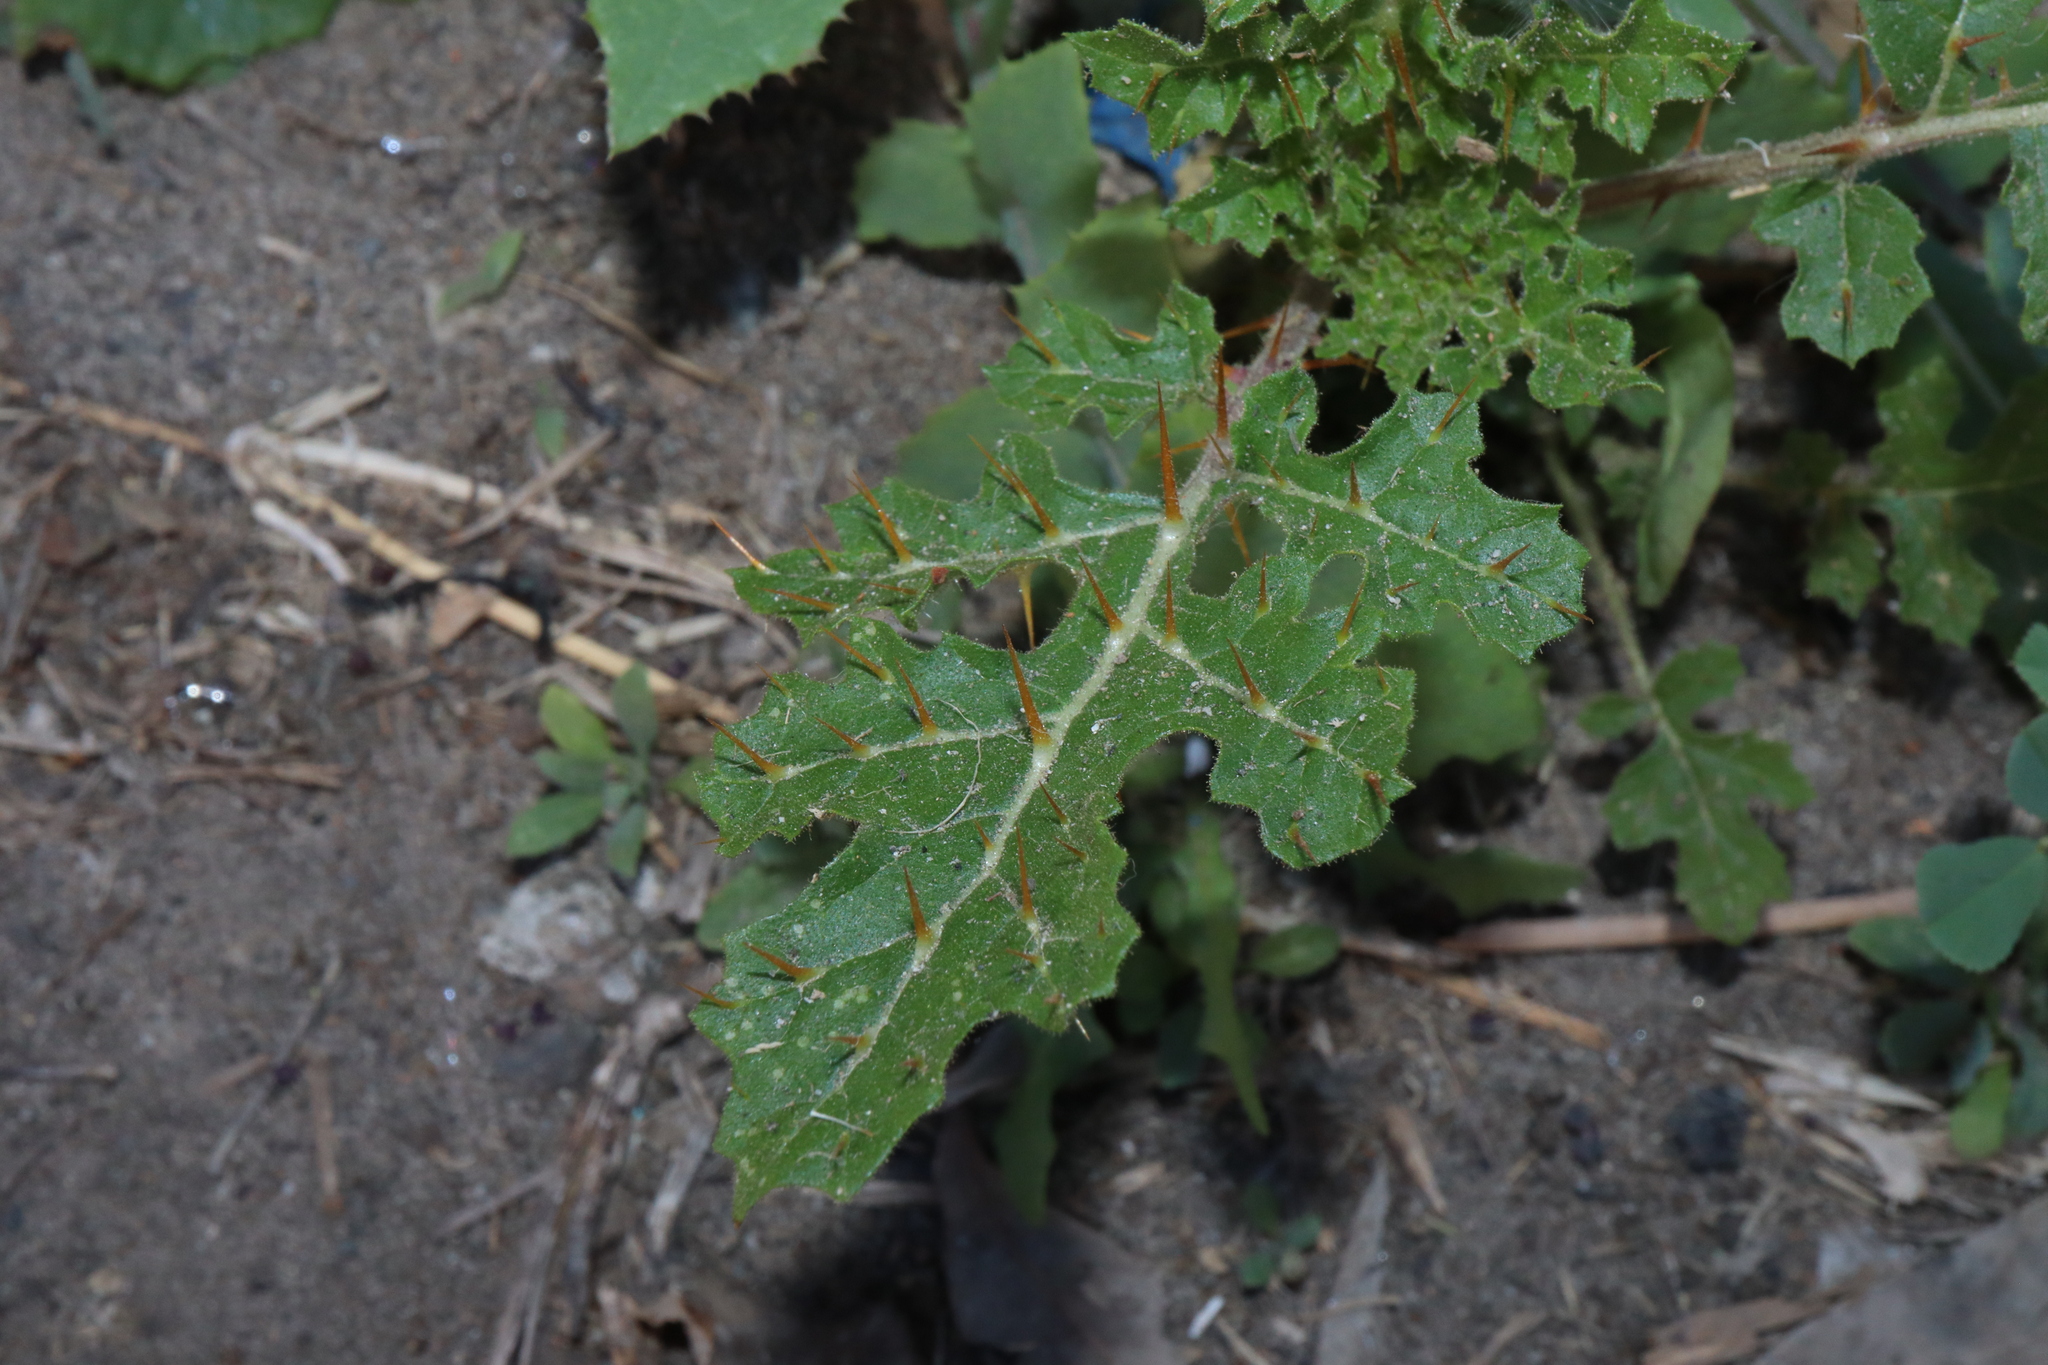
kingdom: Plantae
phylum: Tracheophyta
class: Magnoliopsida
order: Solanales
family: Solanaceae
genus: Solanum
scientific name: Solanum sisymbriifolium
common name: Red buffalo-bur
